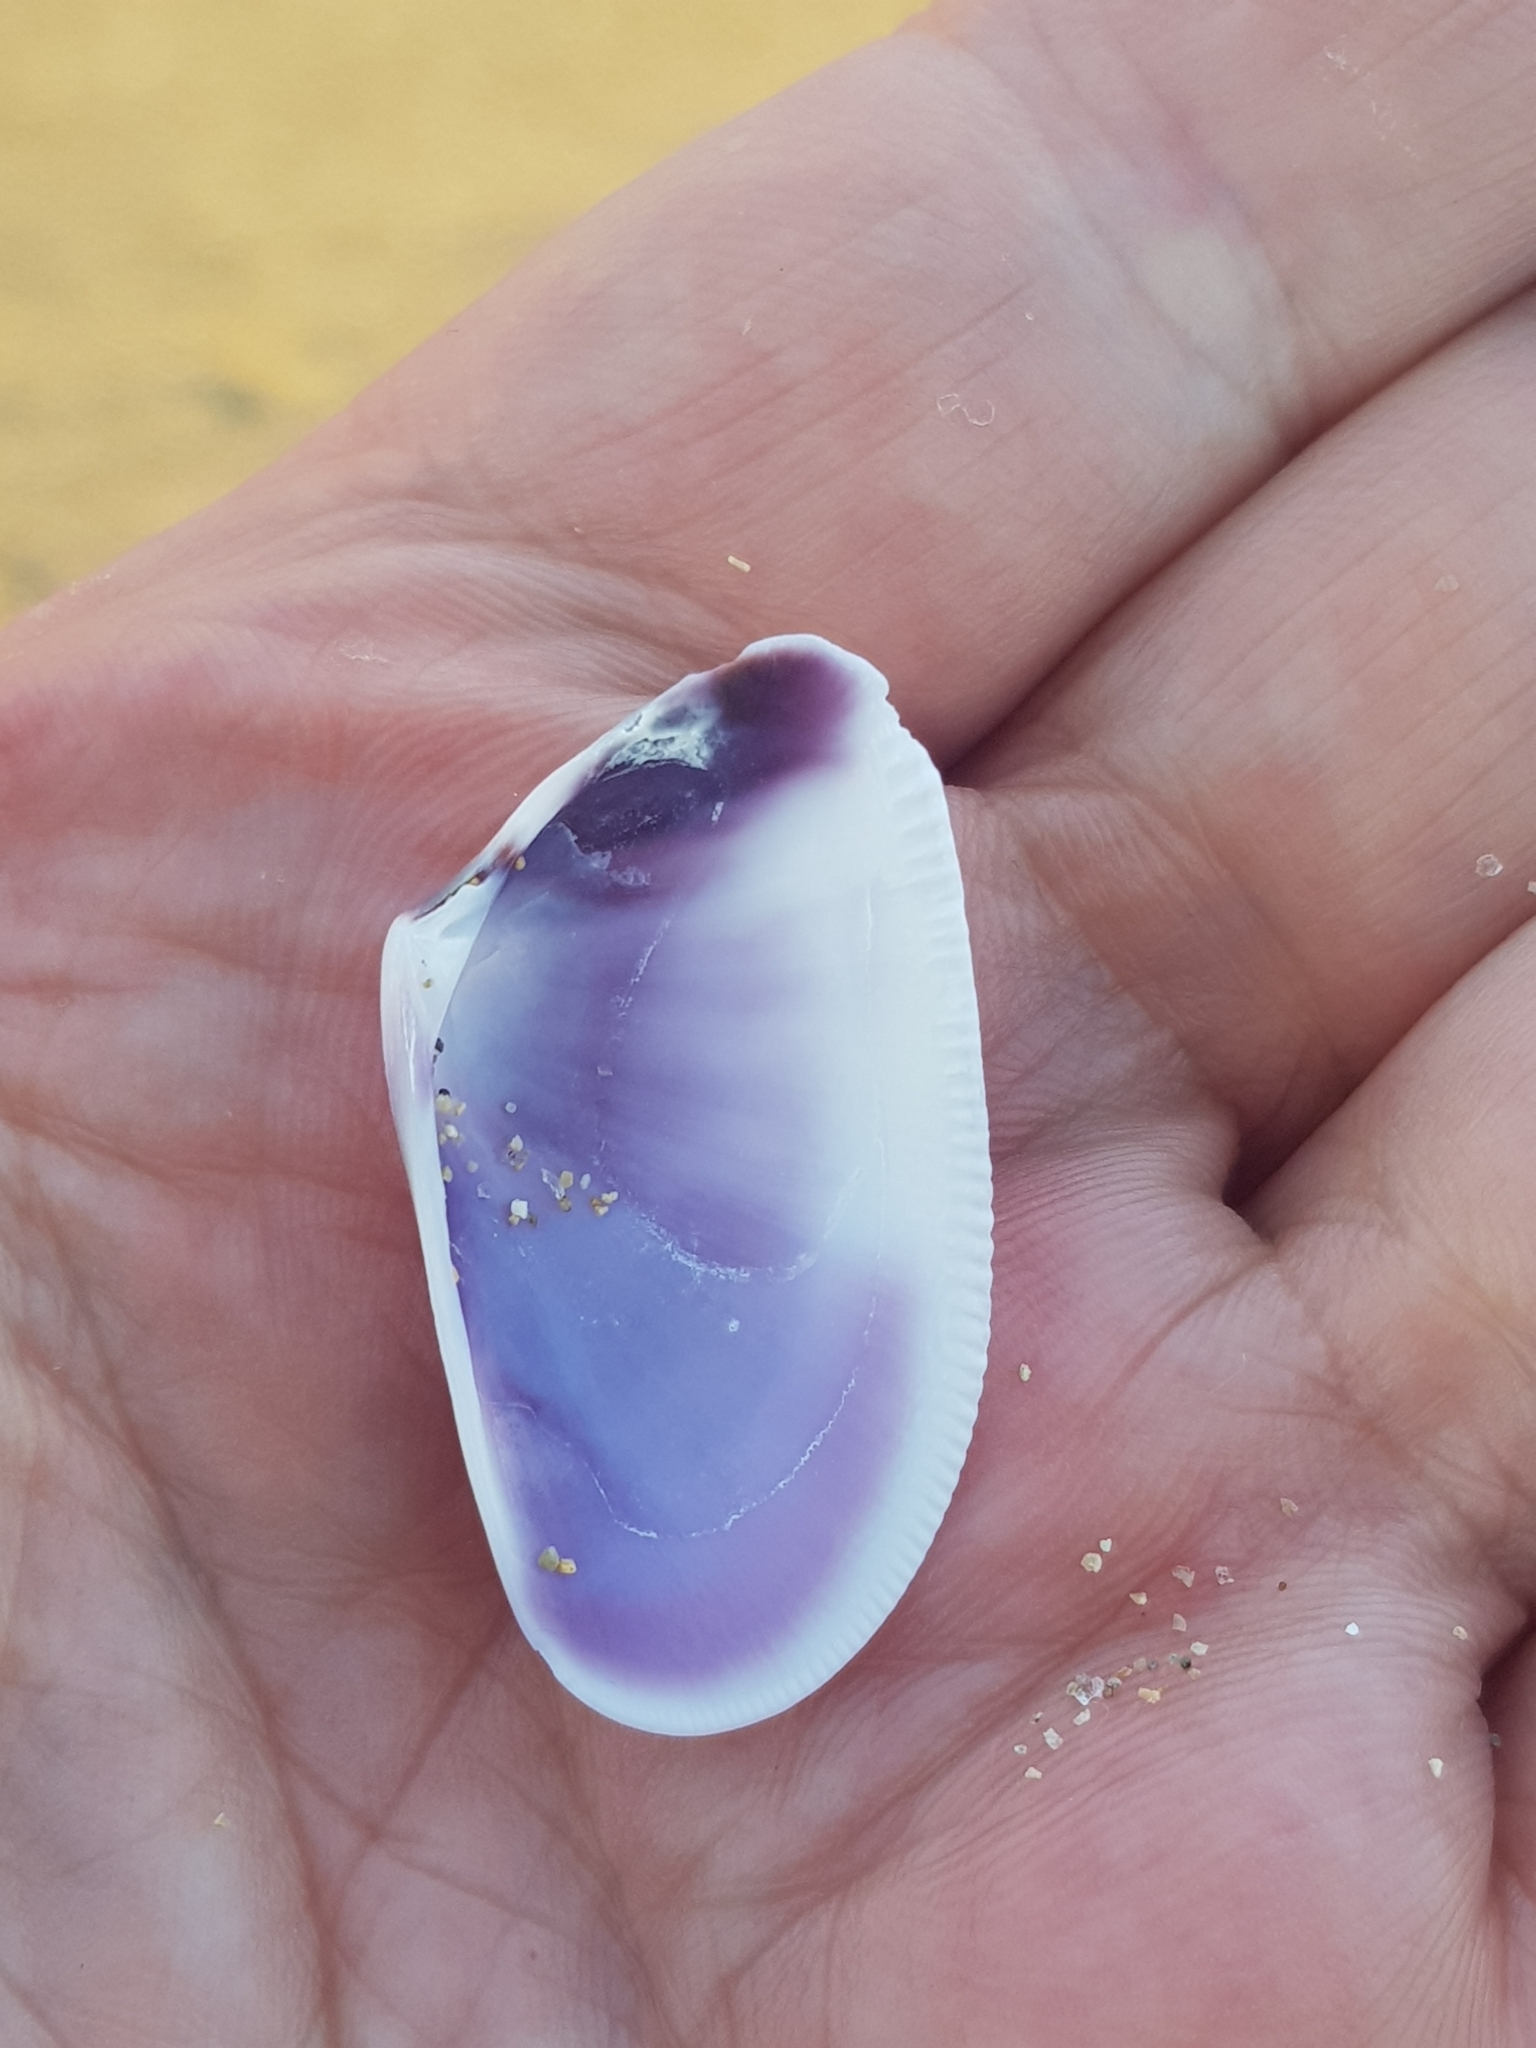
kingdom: Animalia
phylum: Mollusca
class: Bivalvia
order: Cardiida
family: Donacidae
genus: Donax
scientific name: Donax trunculus
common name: Truncate donax
